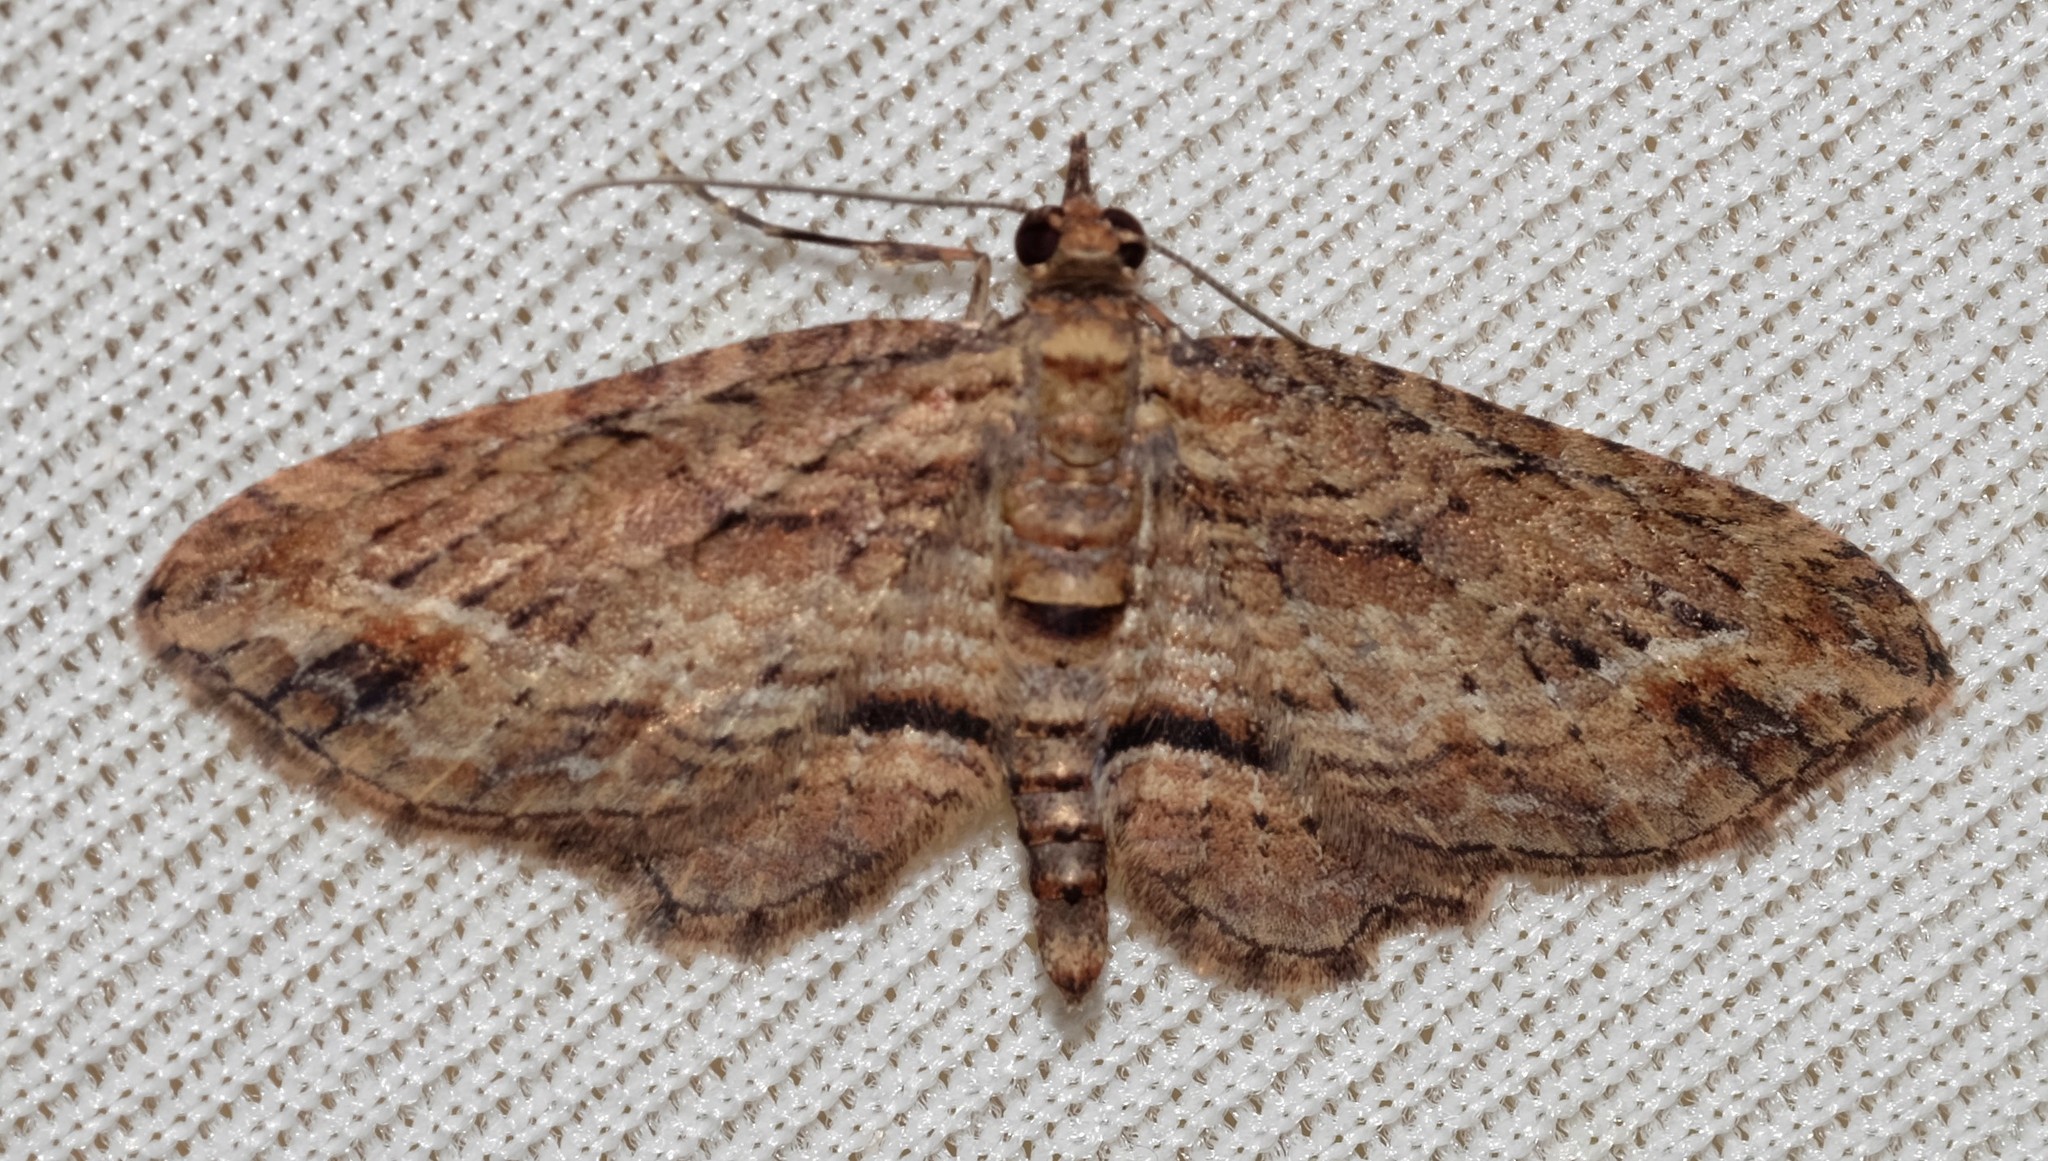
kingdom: Animalia
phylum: Arthropoda
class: Insecta
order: Lepidoptera
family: Geometridae
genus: Chloroclystis
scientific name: Chloroclystis filata
